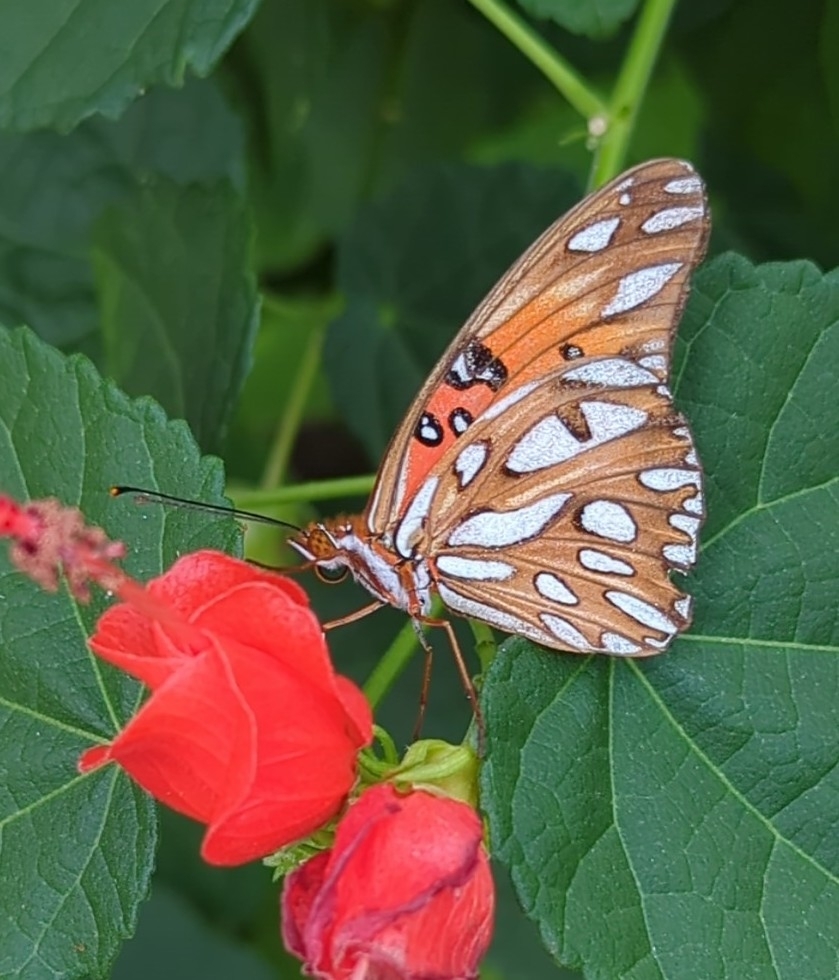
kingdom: Animalia
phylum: Arthropoda
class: Insecta
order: Lepidoptera
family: Nymphalidae
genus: Dione
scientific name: Dione vanillae
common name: Gulf fritillary
